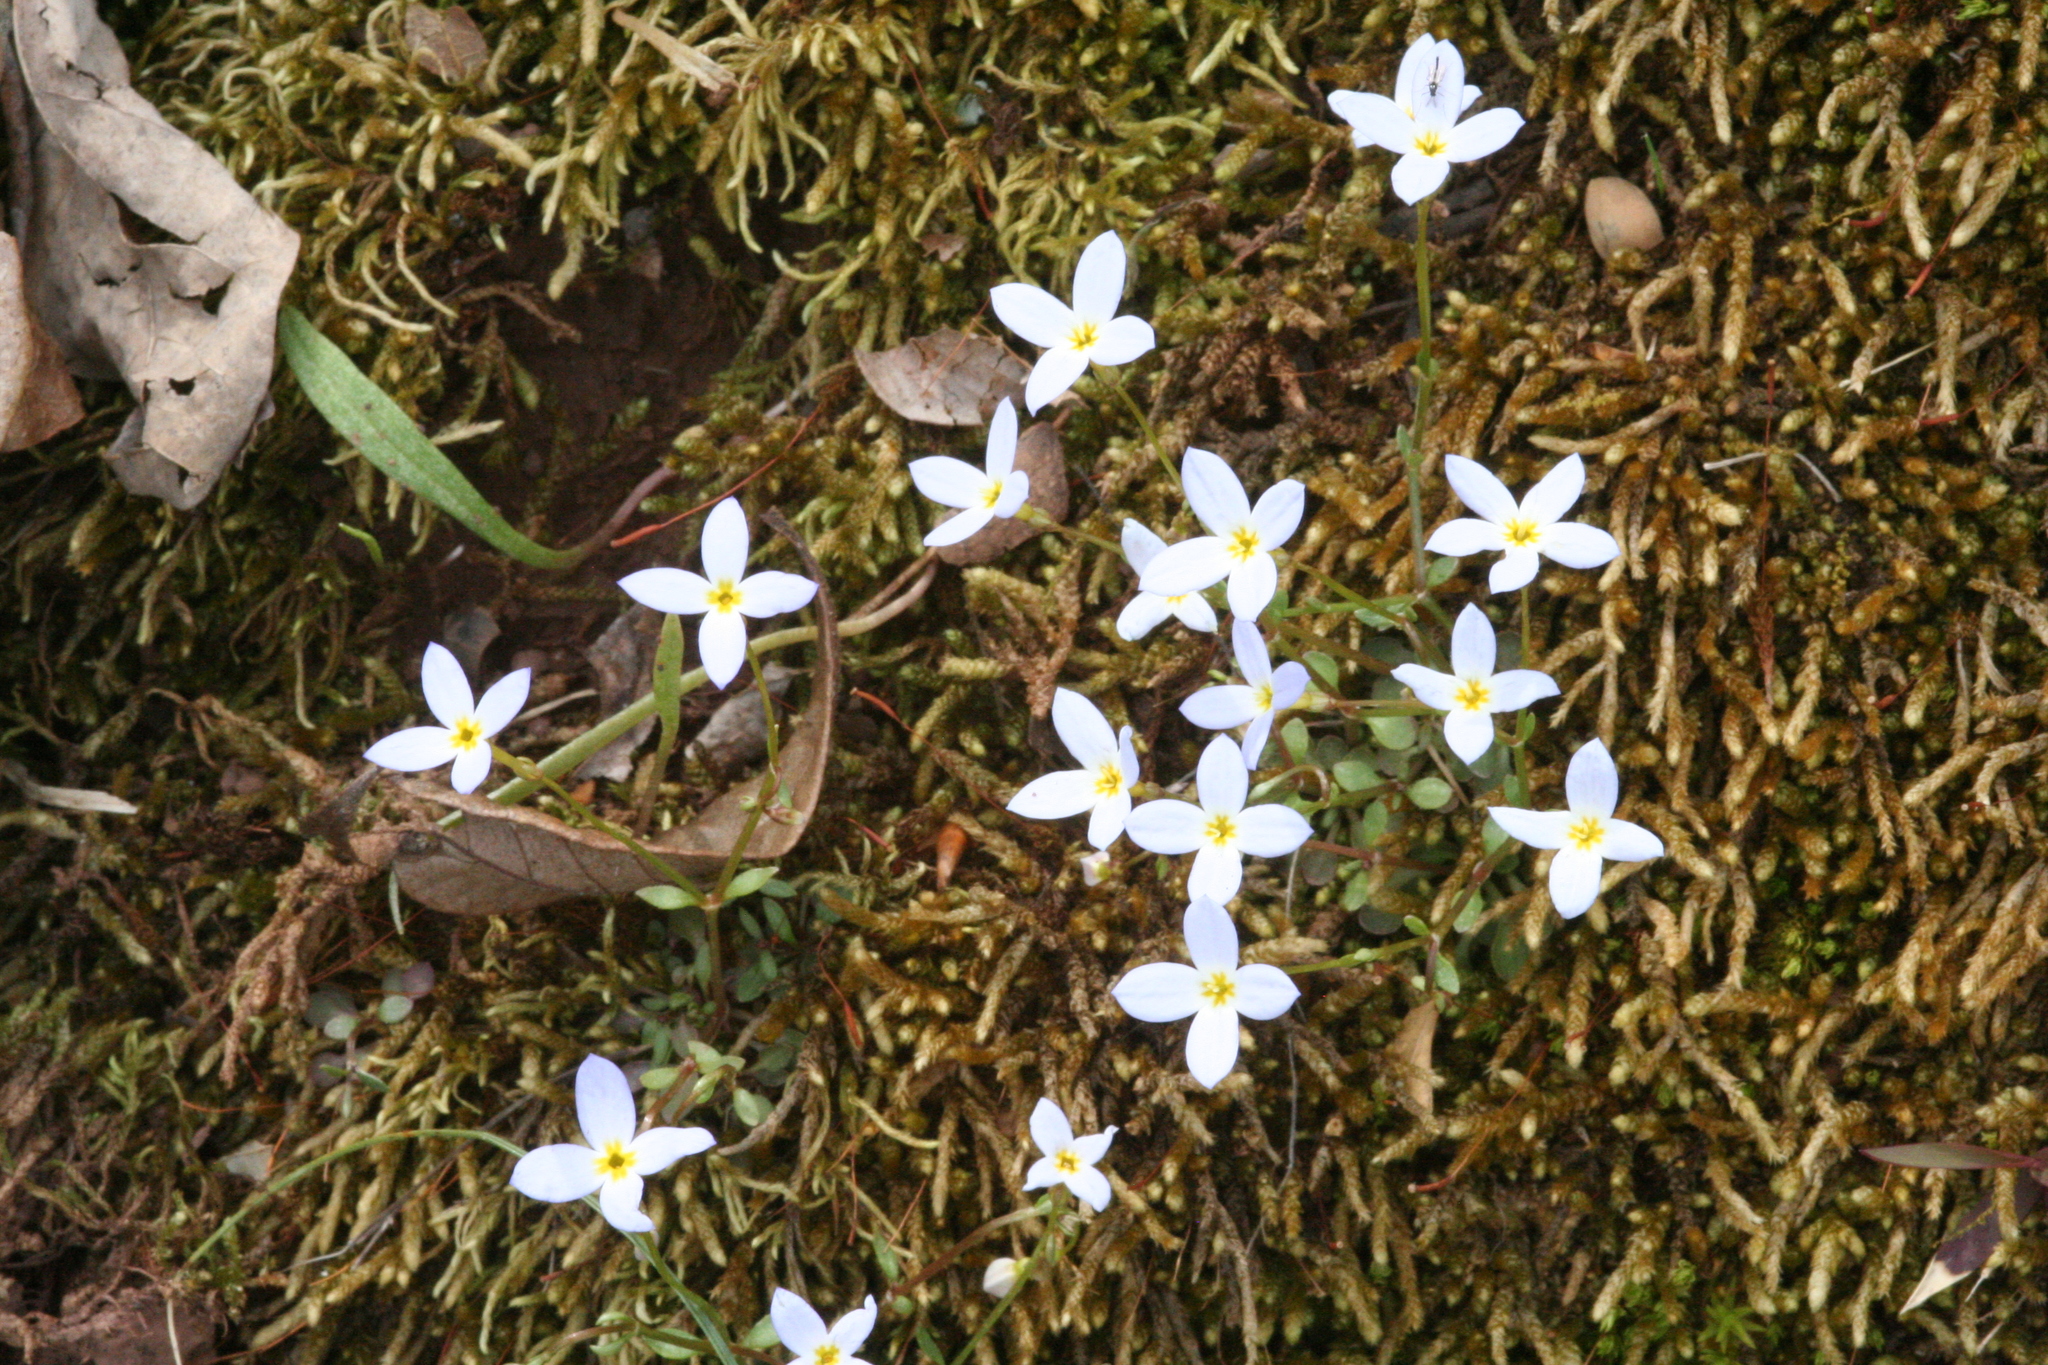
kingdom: Plantae
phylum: Tracheophyta
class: Magnoliopsida
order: Gentianales
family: Rubiaceae
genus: Houstonia
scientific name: Houstonia caerulea
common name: Bluets
